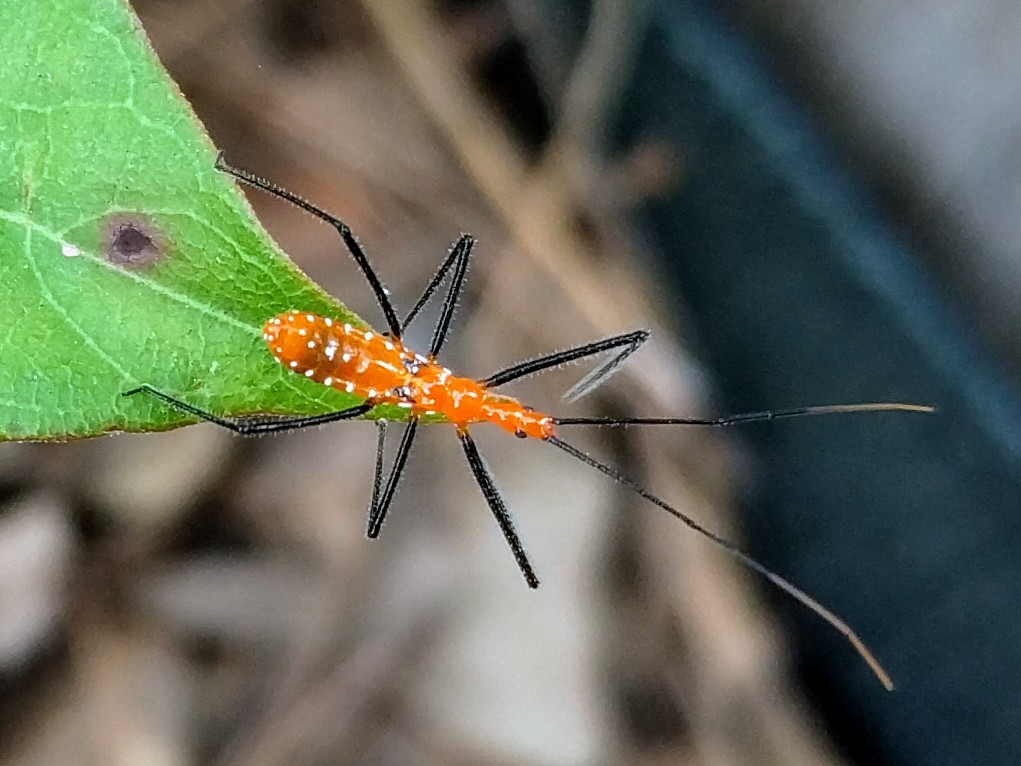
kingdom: Animalia
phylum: Arthropoda
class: Insecta
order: Hemiptera
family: Reduviidae
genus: Zelus
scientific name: Zelus longipes
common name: Milkweed assassin bug
